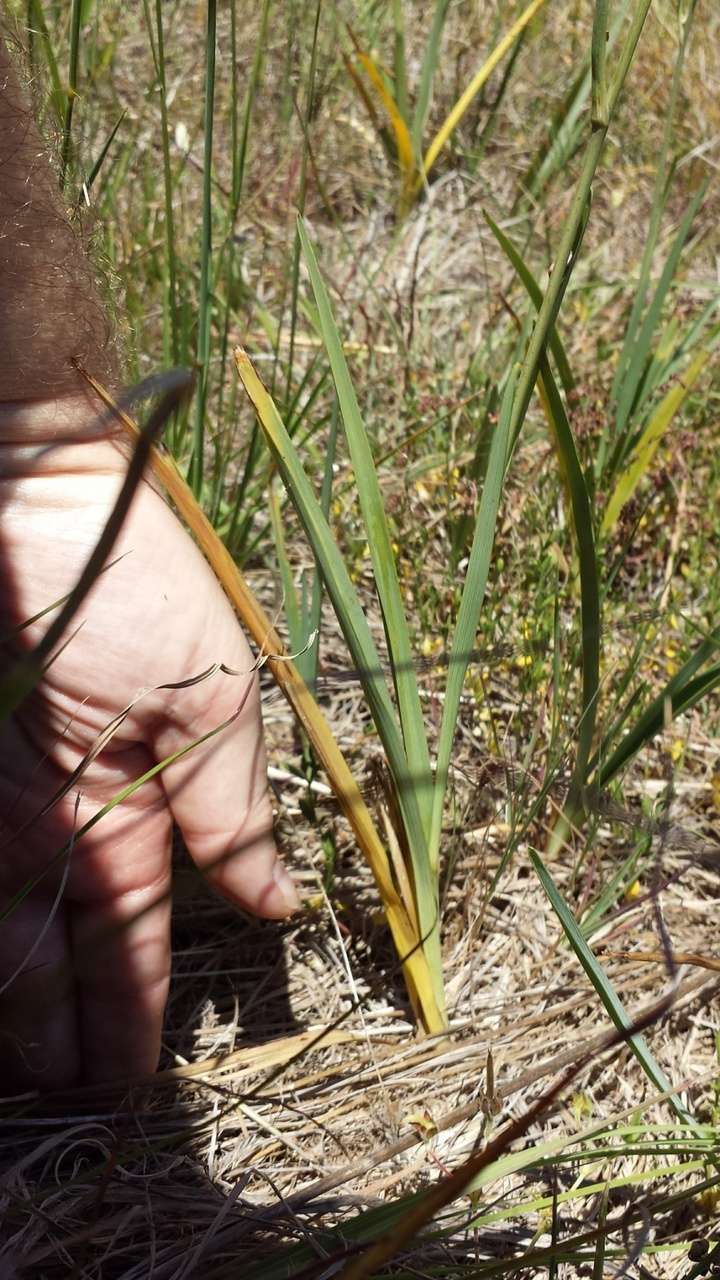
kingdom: Plantae
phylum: Tracheophyta
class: Liliopsida
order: Asparagales
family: Asphodelaceae
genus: Dianella
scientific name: Dianella amoena
